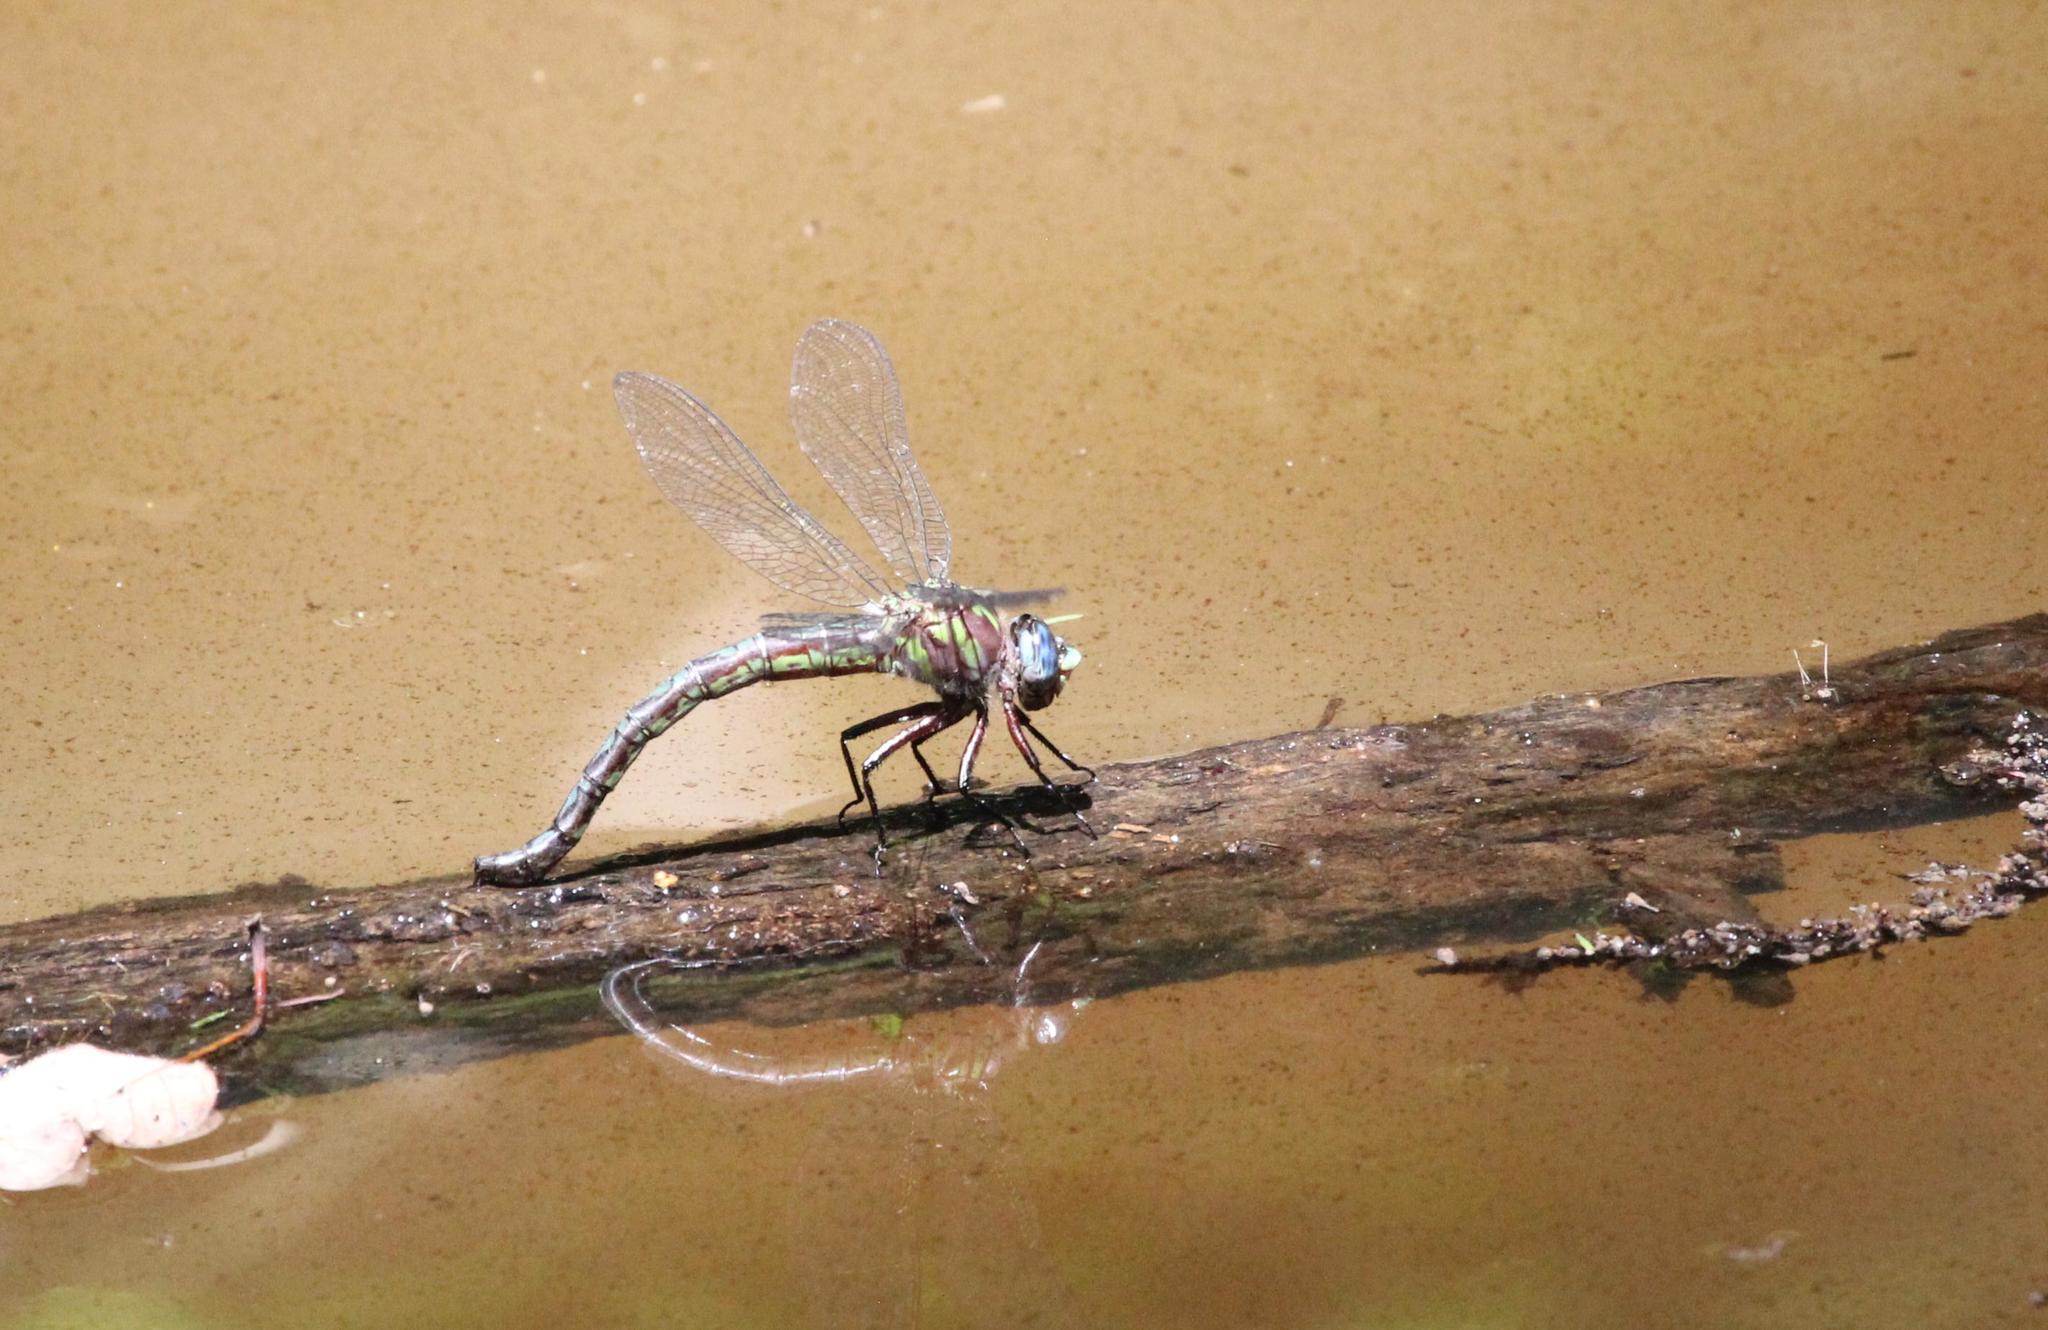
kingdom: Animalia
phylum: Arthropoda
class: Insecta
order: Odonata
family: Aeshnidae
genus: Nasiaeschna
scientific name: Nasiaeschna pentacantha
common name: Cyrano darner
